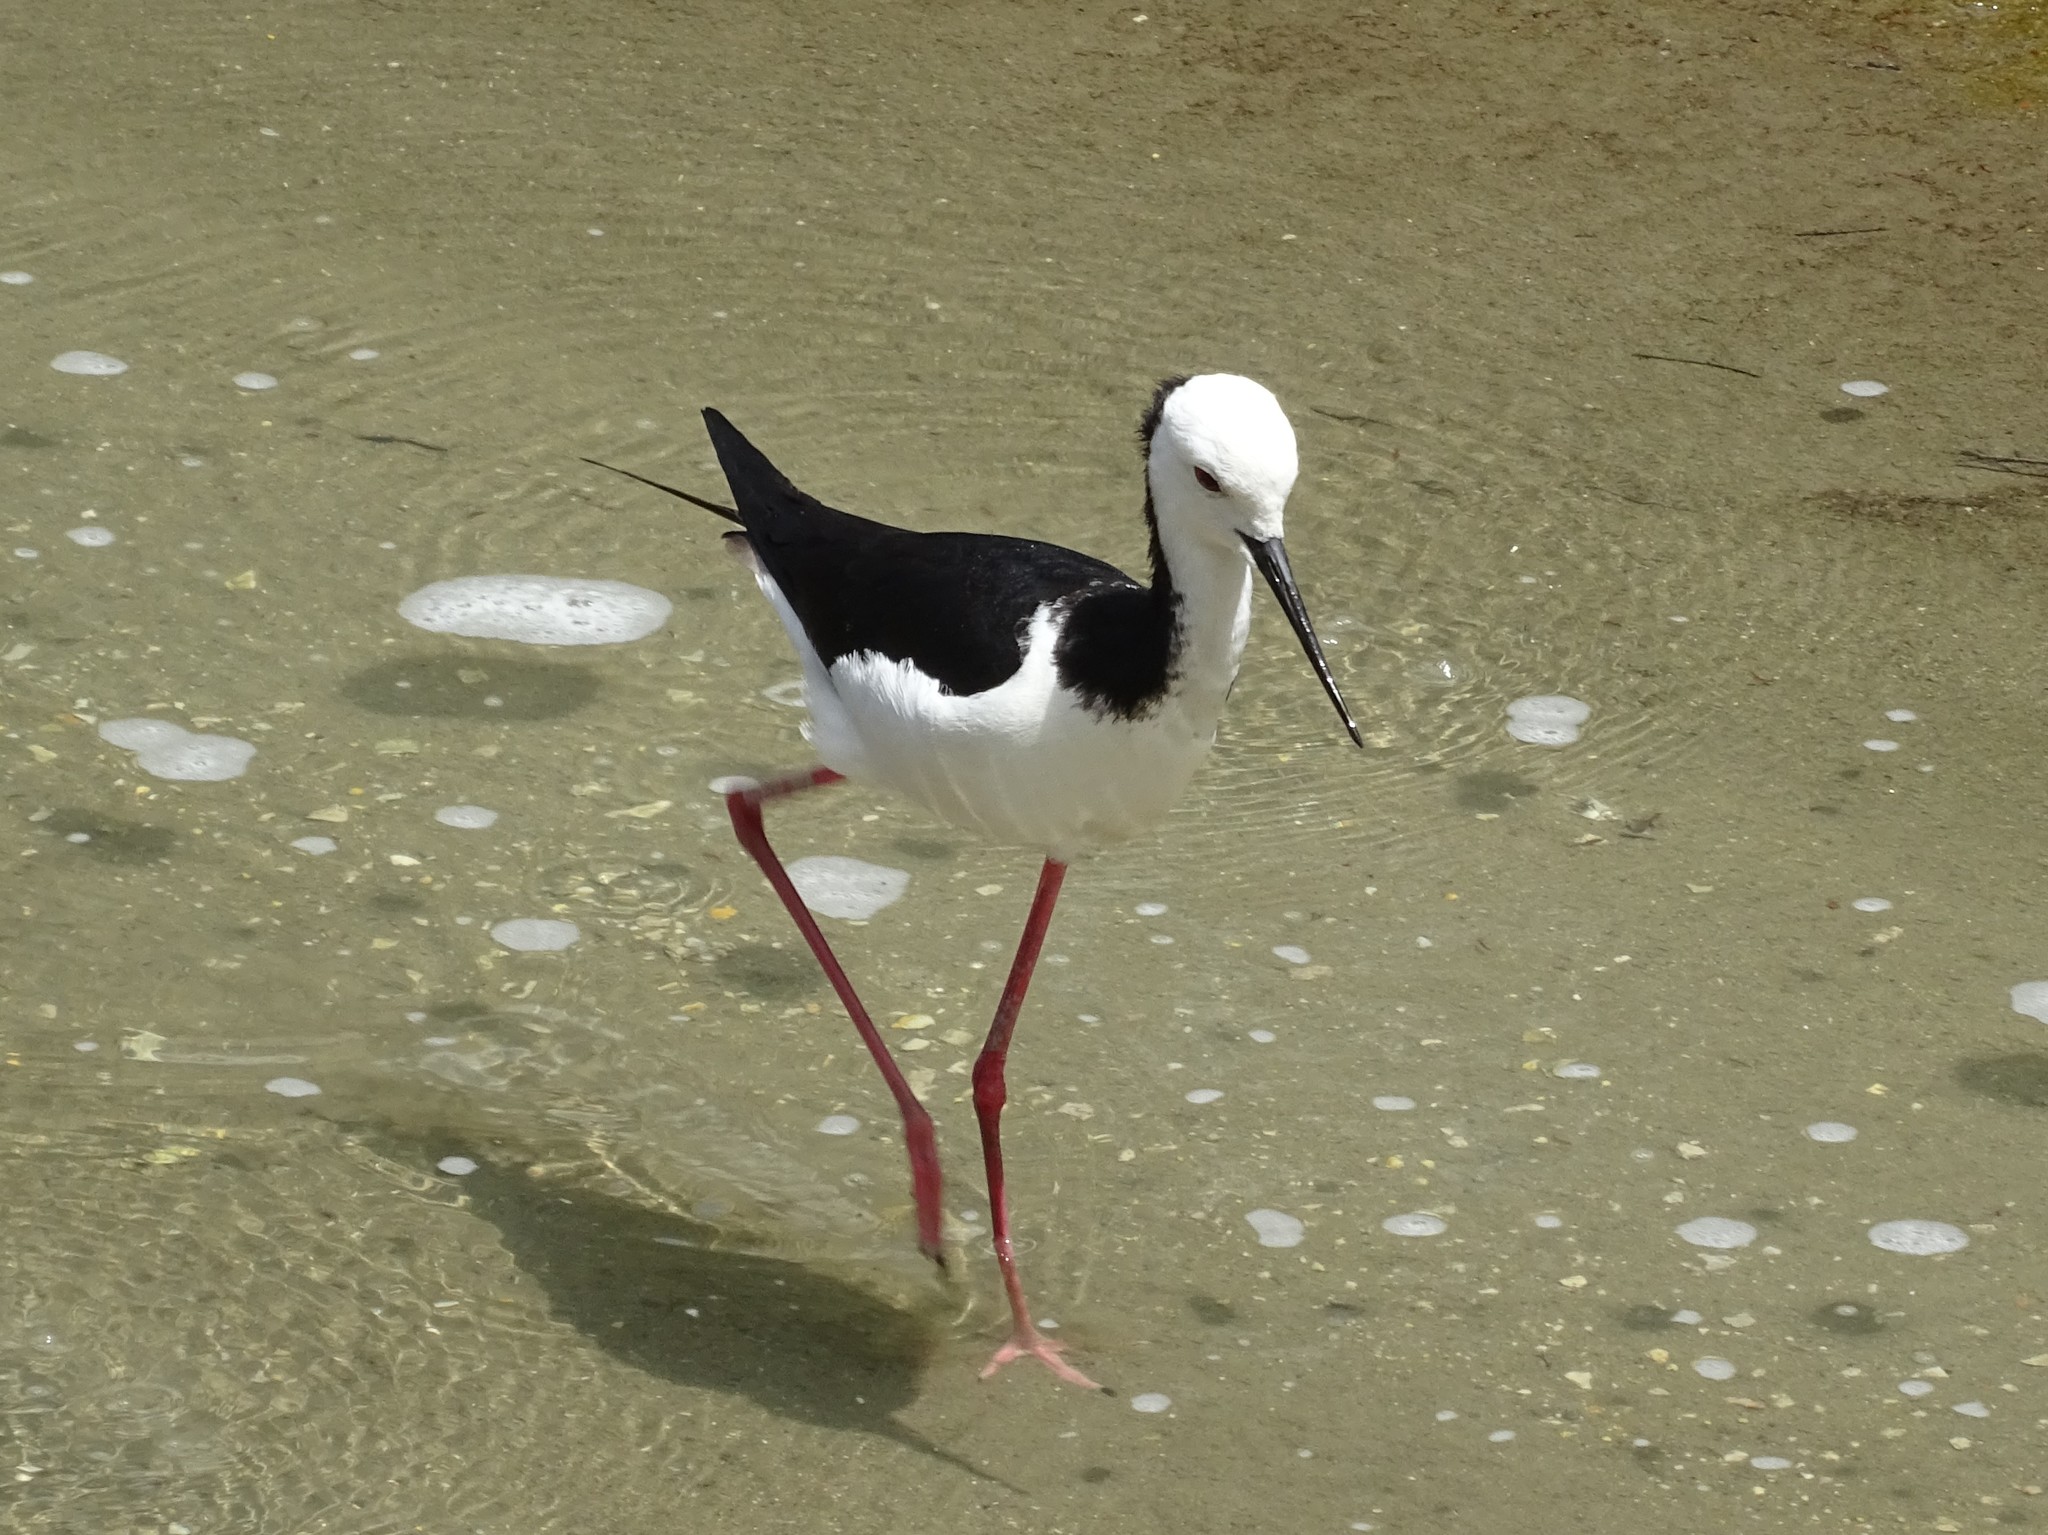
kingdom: Animalia
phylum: Chordata
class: Aves
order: Charadriiformes
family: Recurvirostridae
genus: Himantopus
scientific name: Himantopus leucocephalus
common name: White-headed stilt
